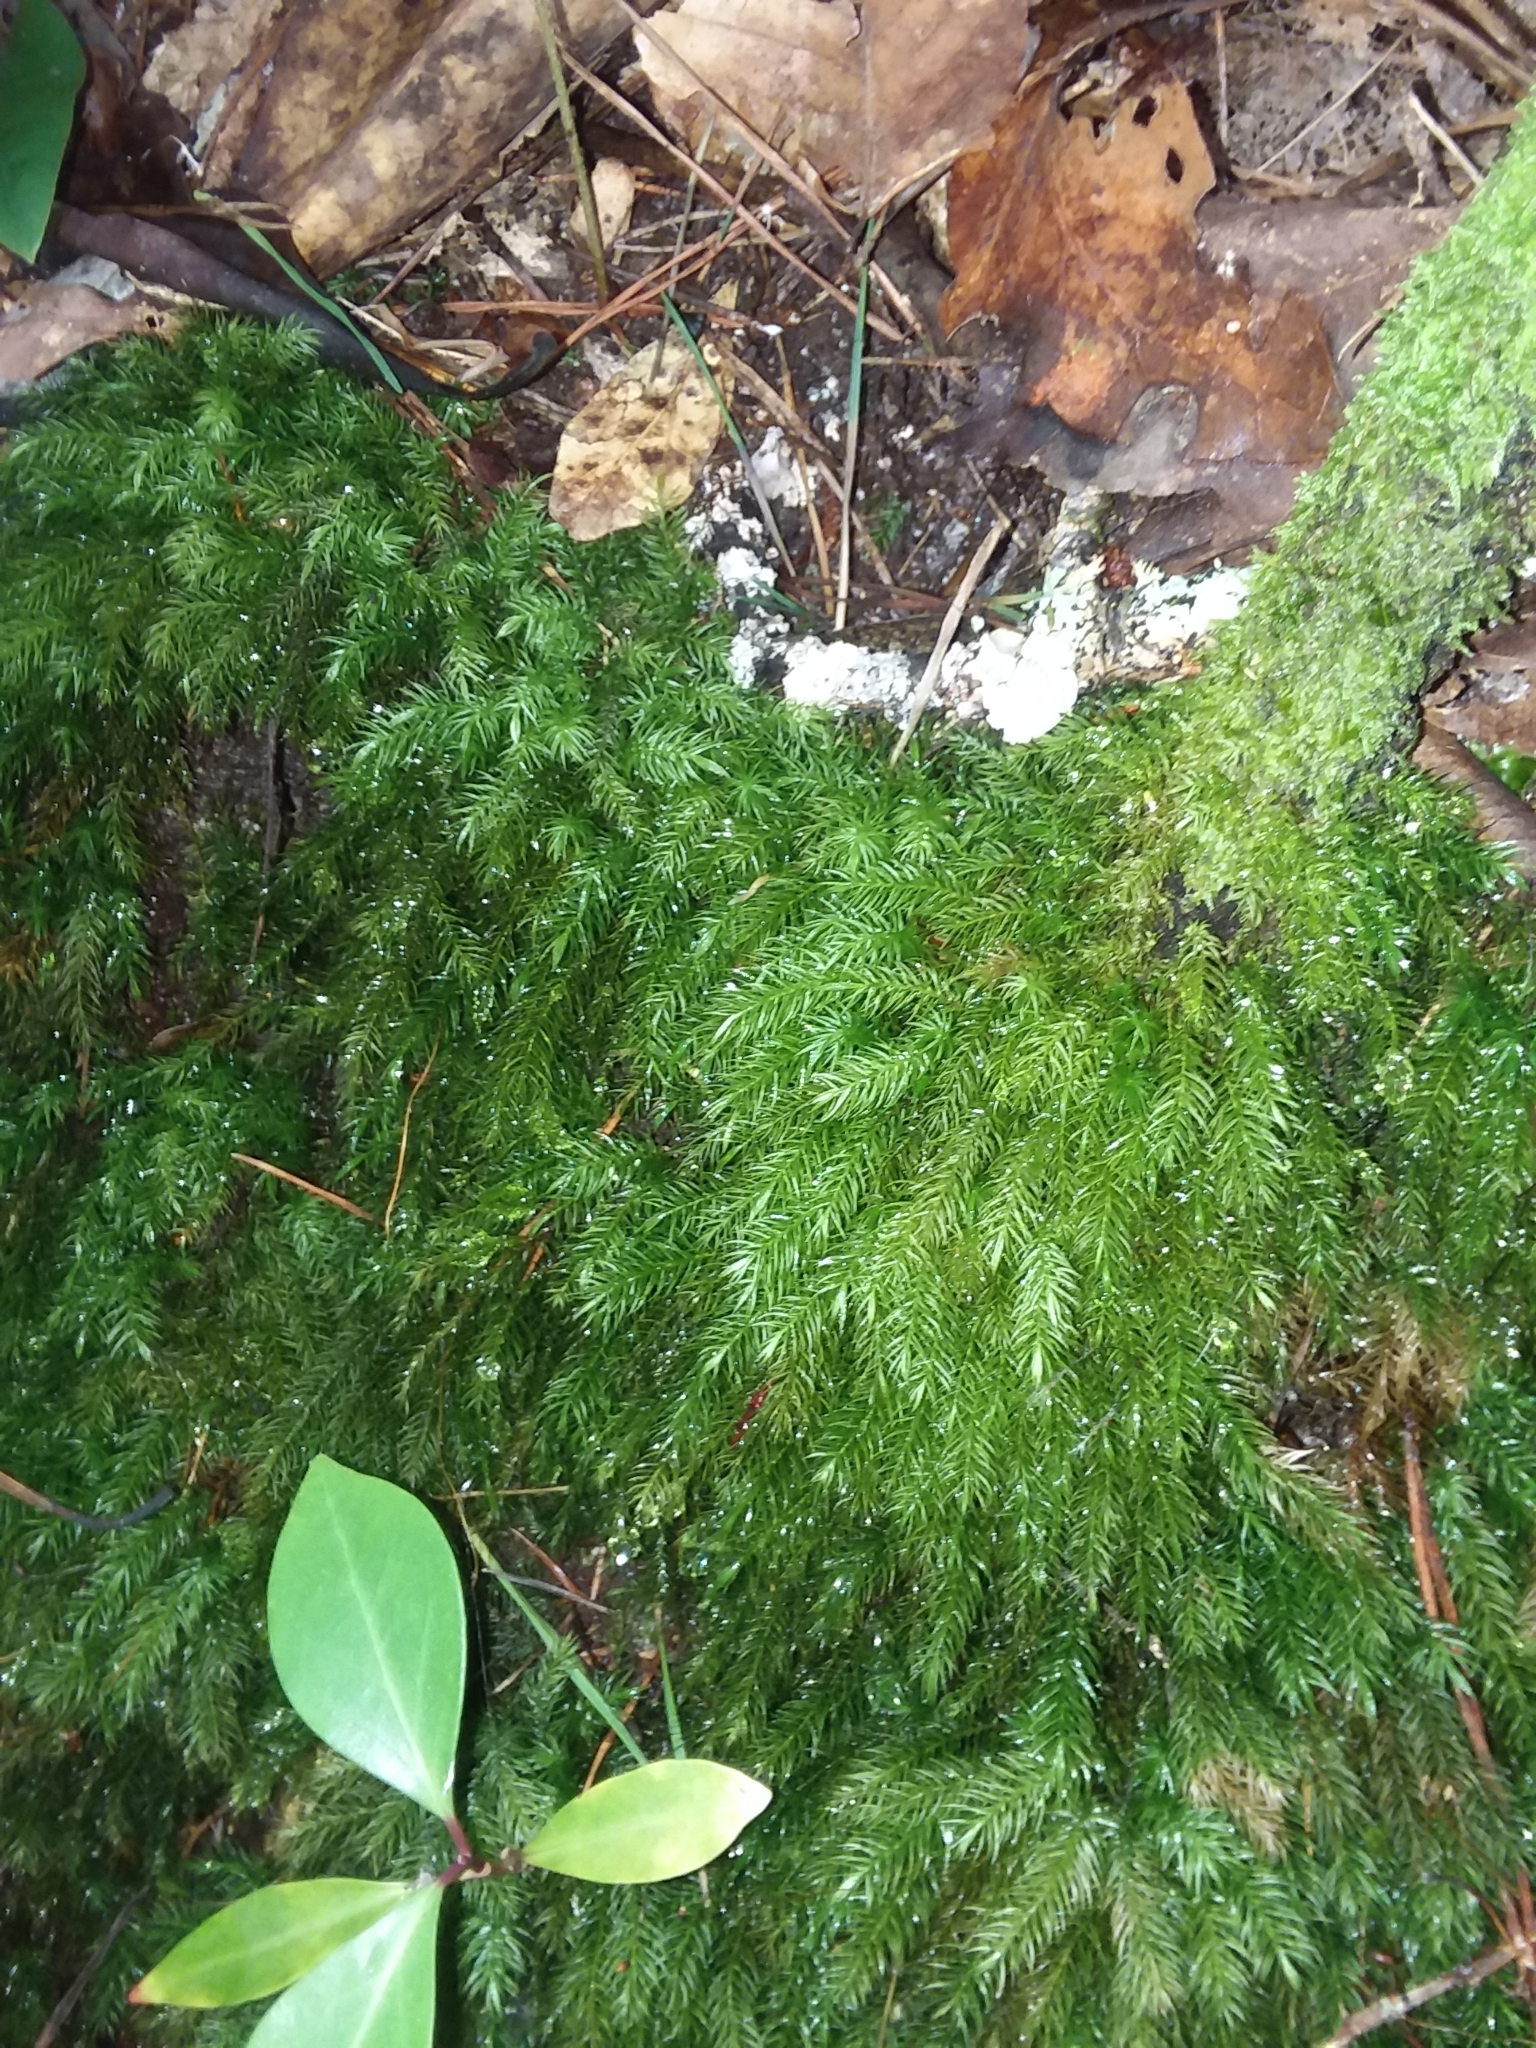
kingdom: Plantae
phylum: Bryophyta
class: Bryopsida
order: Rhizogoniales
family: Calomniaceae
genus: Pyrrhobryum
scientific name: Pyrrhobryum spiniforme
